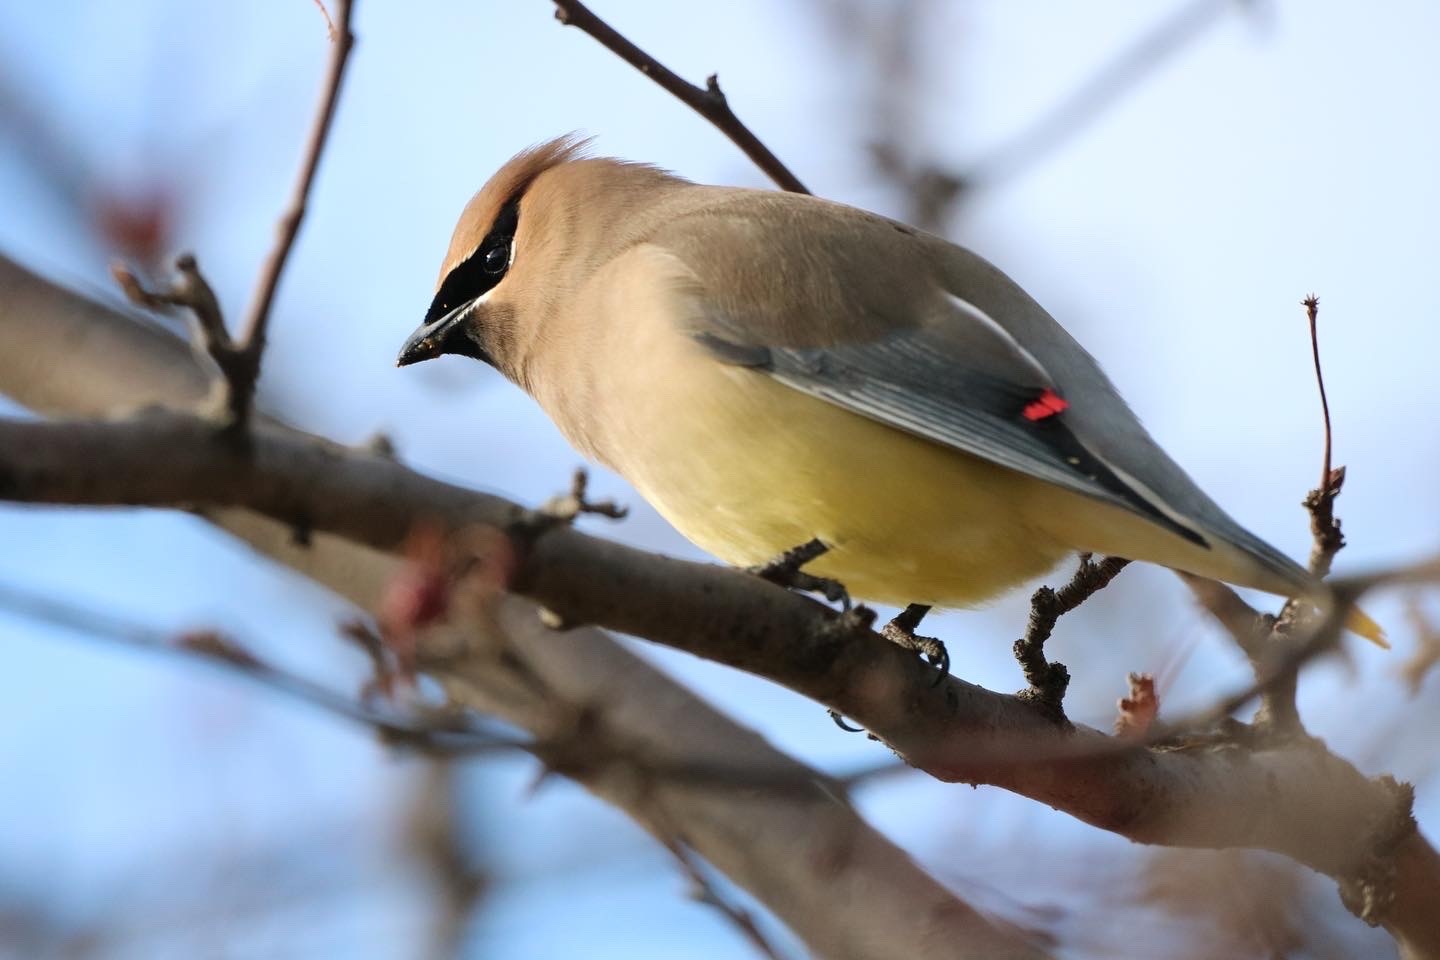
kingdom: Animalia
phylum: Chordata
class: Aves
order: Passeriformes
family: Bombycillidae
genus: Bombycilla
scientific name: Bombycilla cedrorum
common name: Cedar waxwing
